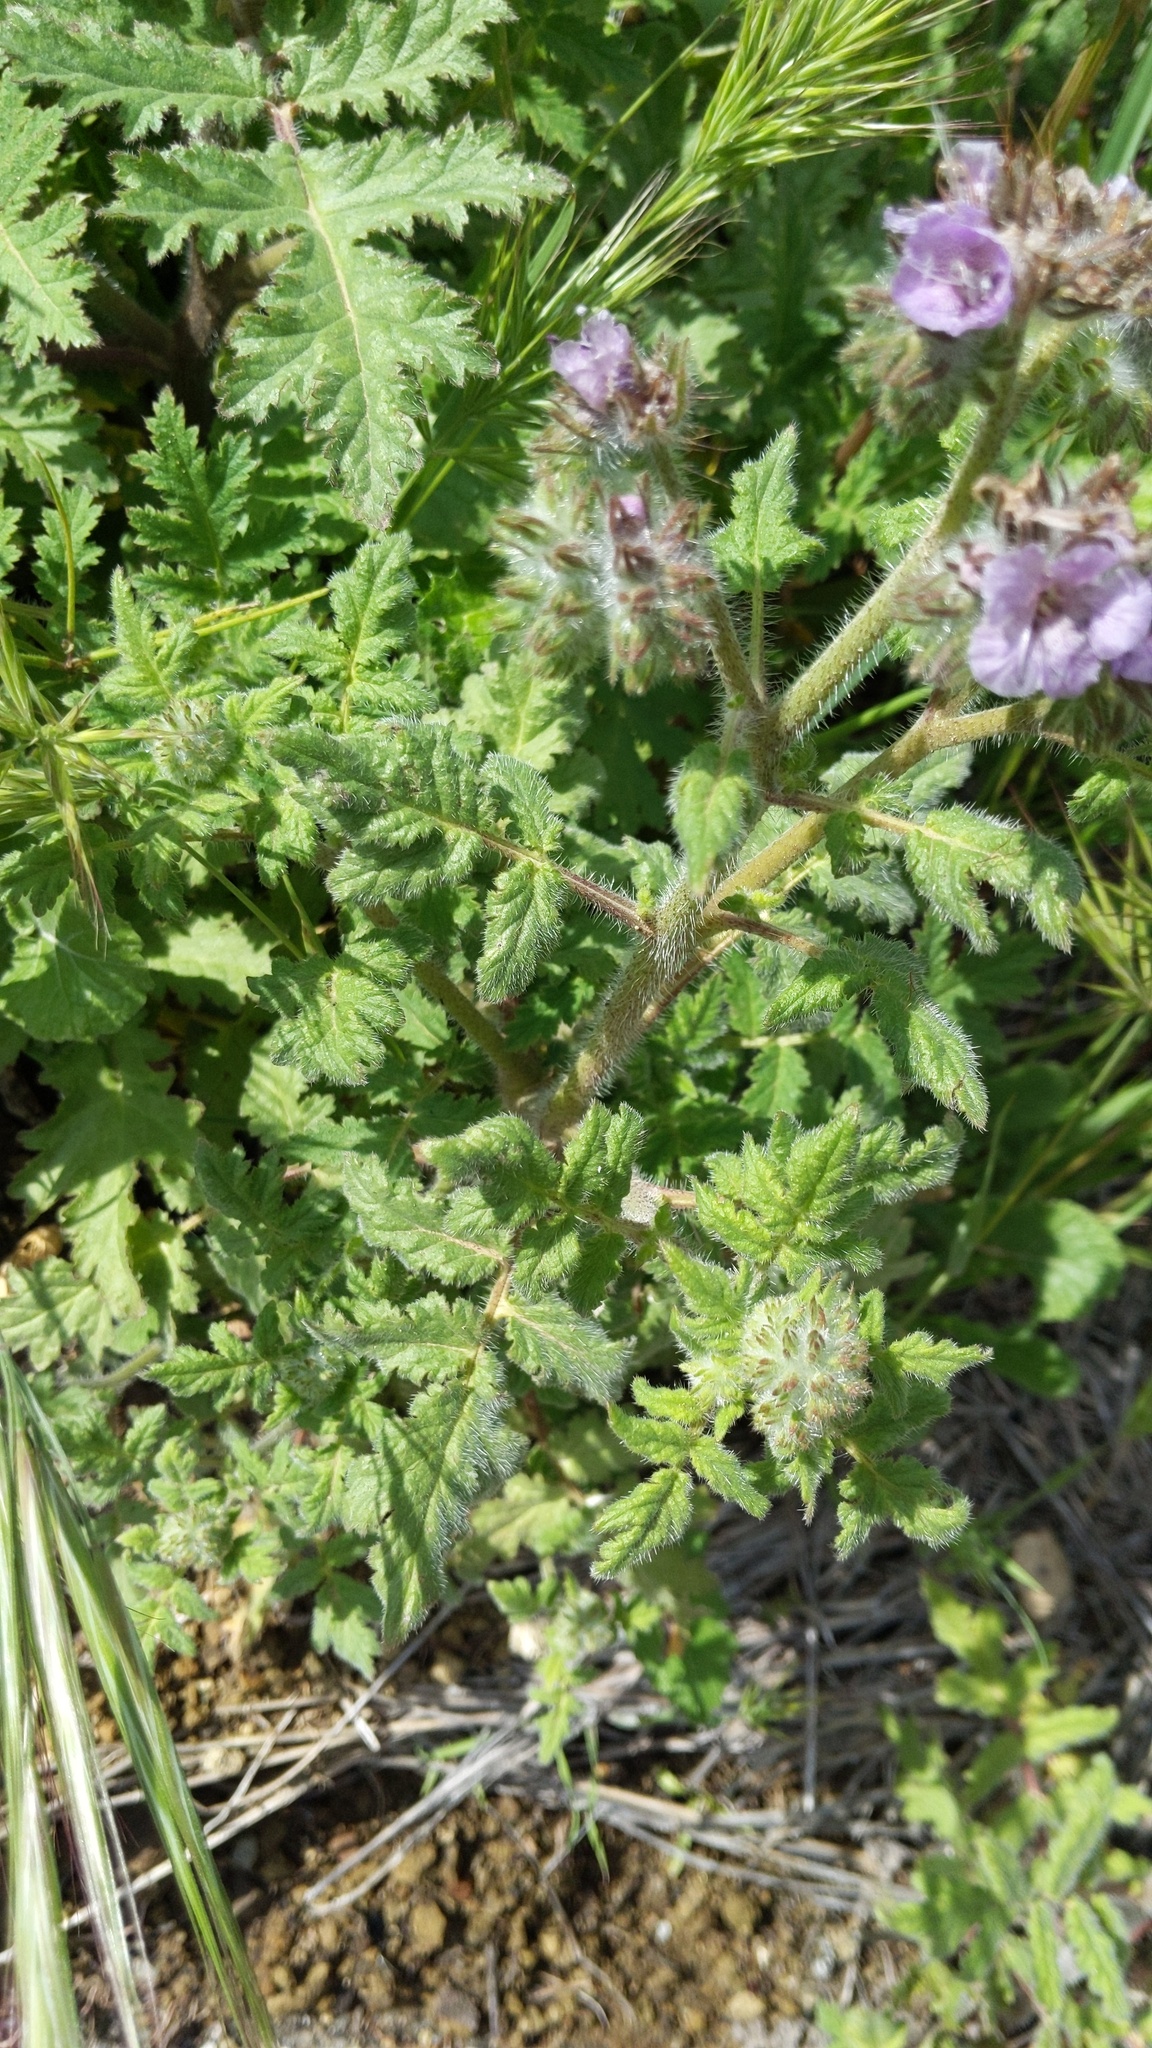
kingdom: Plantae
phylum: Tracheophyta
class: Magnoliopsida
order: Boraginales
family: Hydrophyllaceae
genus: Phacelia
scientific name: Phacelia cicutaria
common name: Caterpillar phacelia
